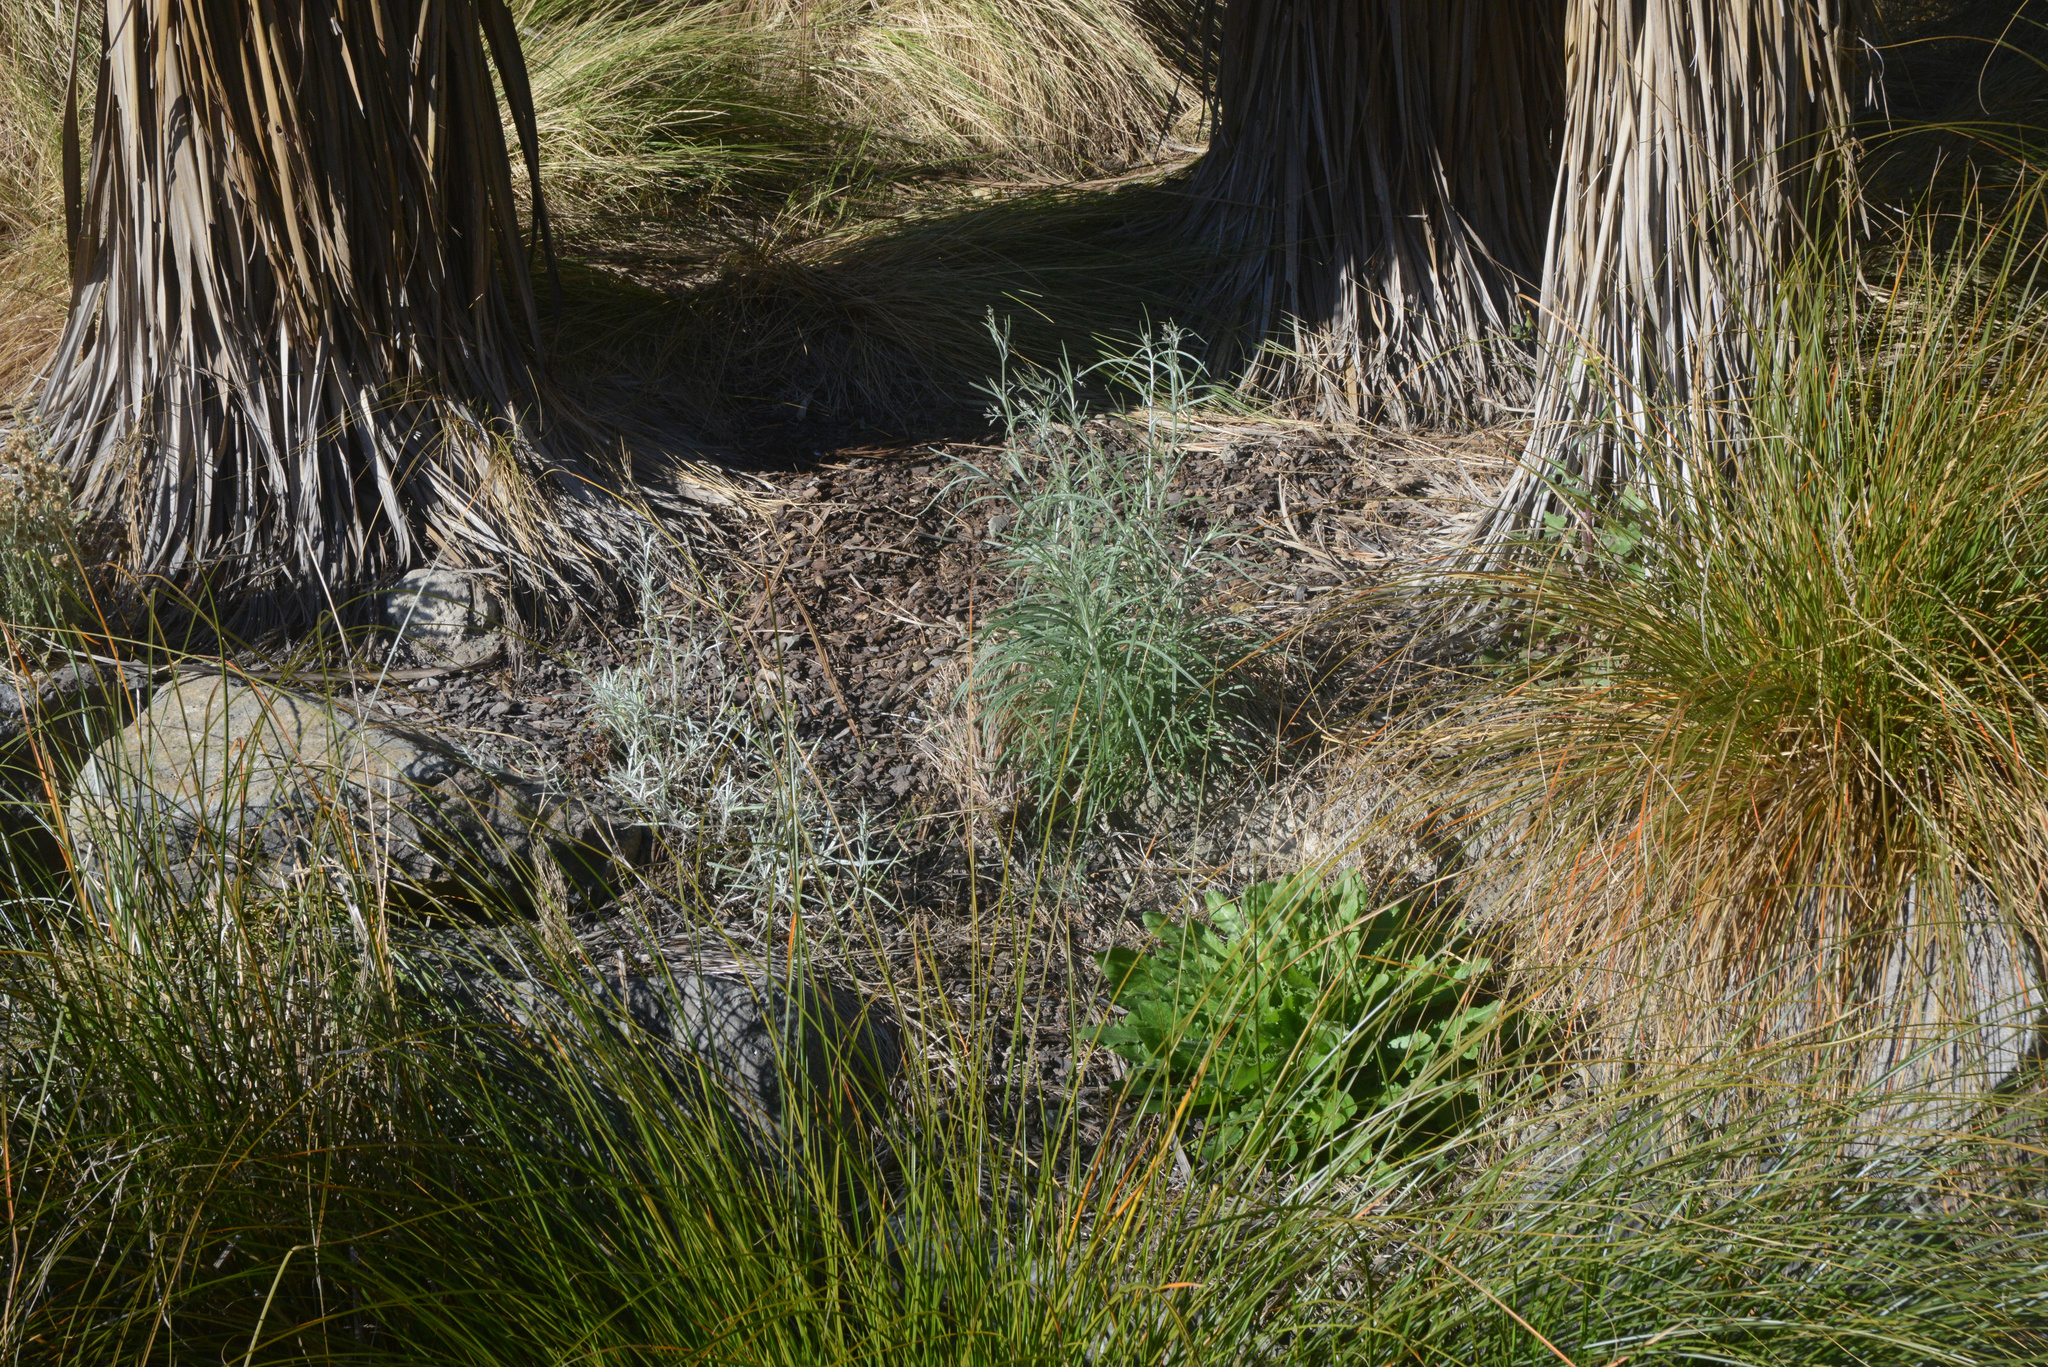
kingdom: Plantae
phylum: Tracheophyta
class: Magnoliopsida
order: Asterales
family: Asteraceae
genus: Senecio
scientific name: Senecio quadridentatus
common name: Cotton fireweed
